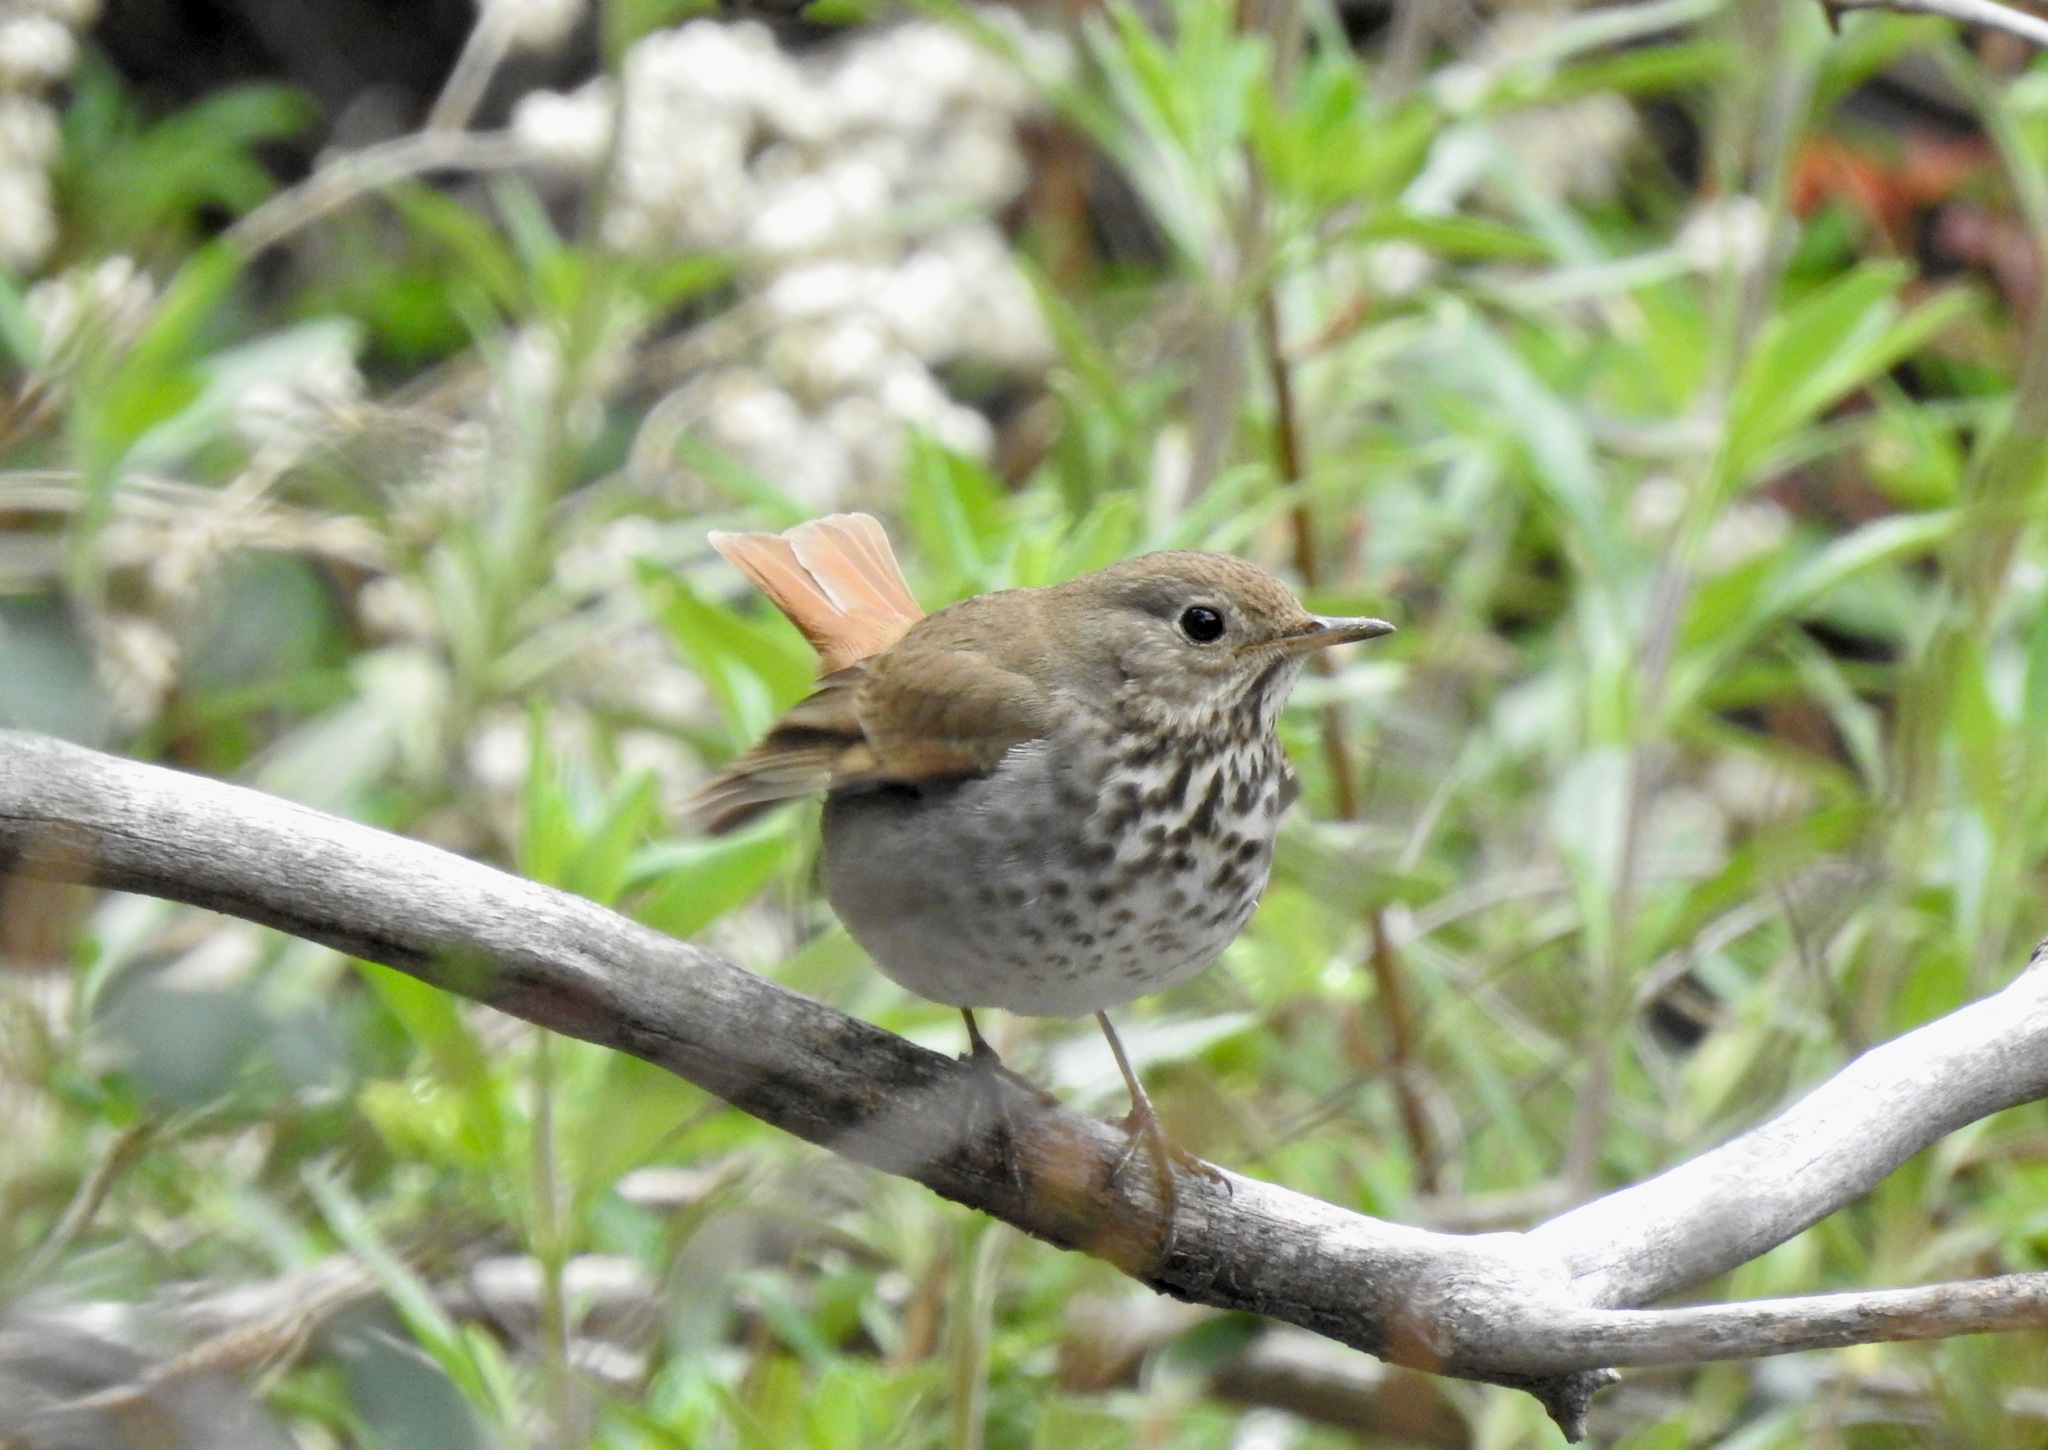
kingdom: Animalia
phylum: Chordata
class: Aves
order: Passeriformes
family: Turdidae
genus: Catharus
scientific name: Catharus guttatus
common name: Hermit thrush
